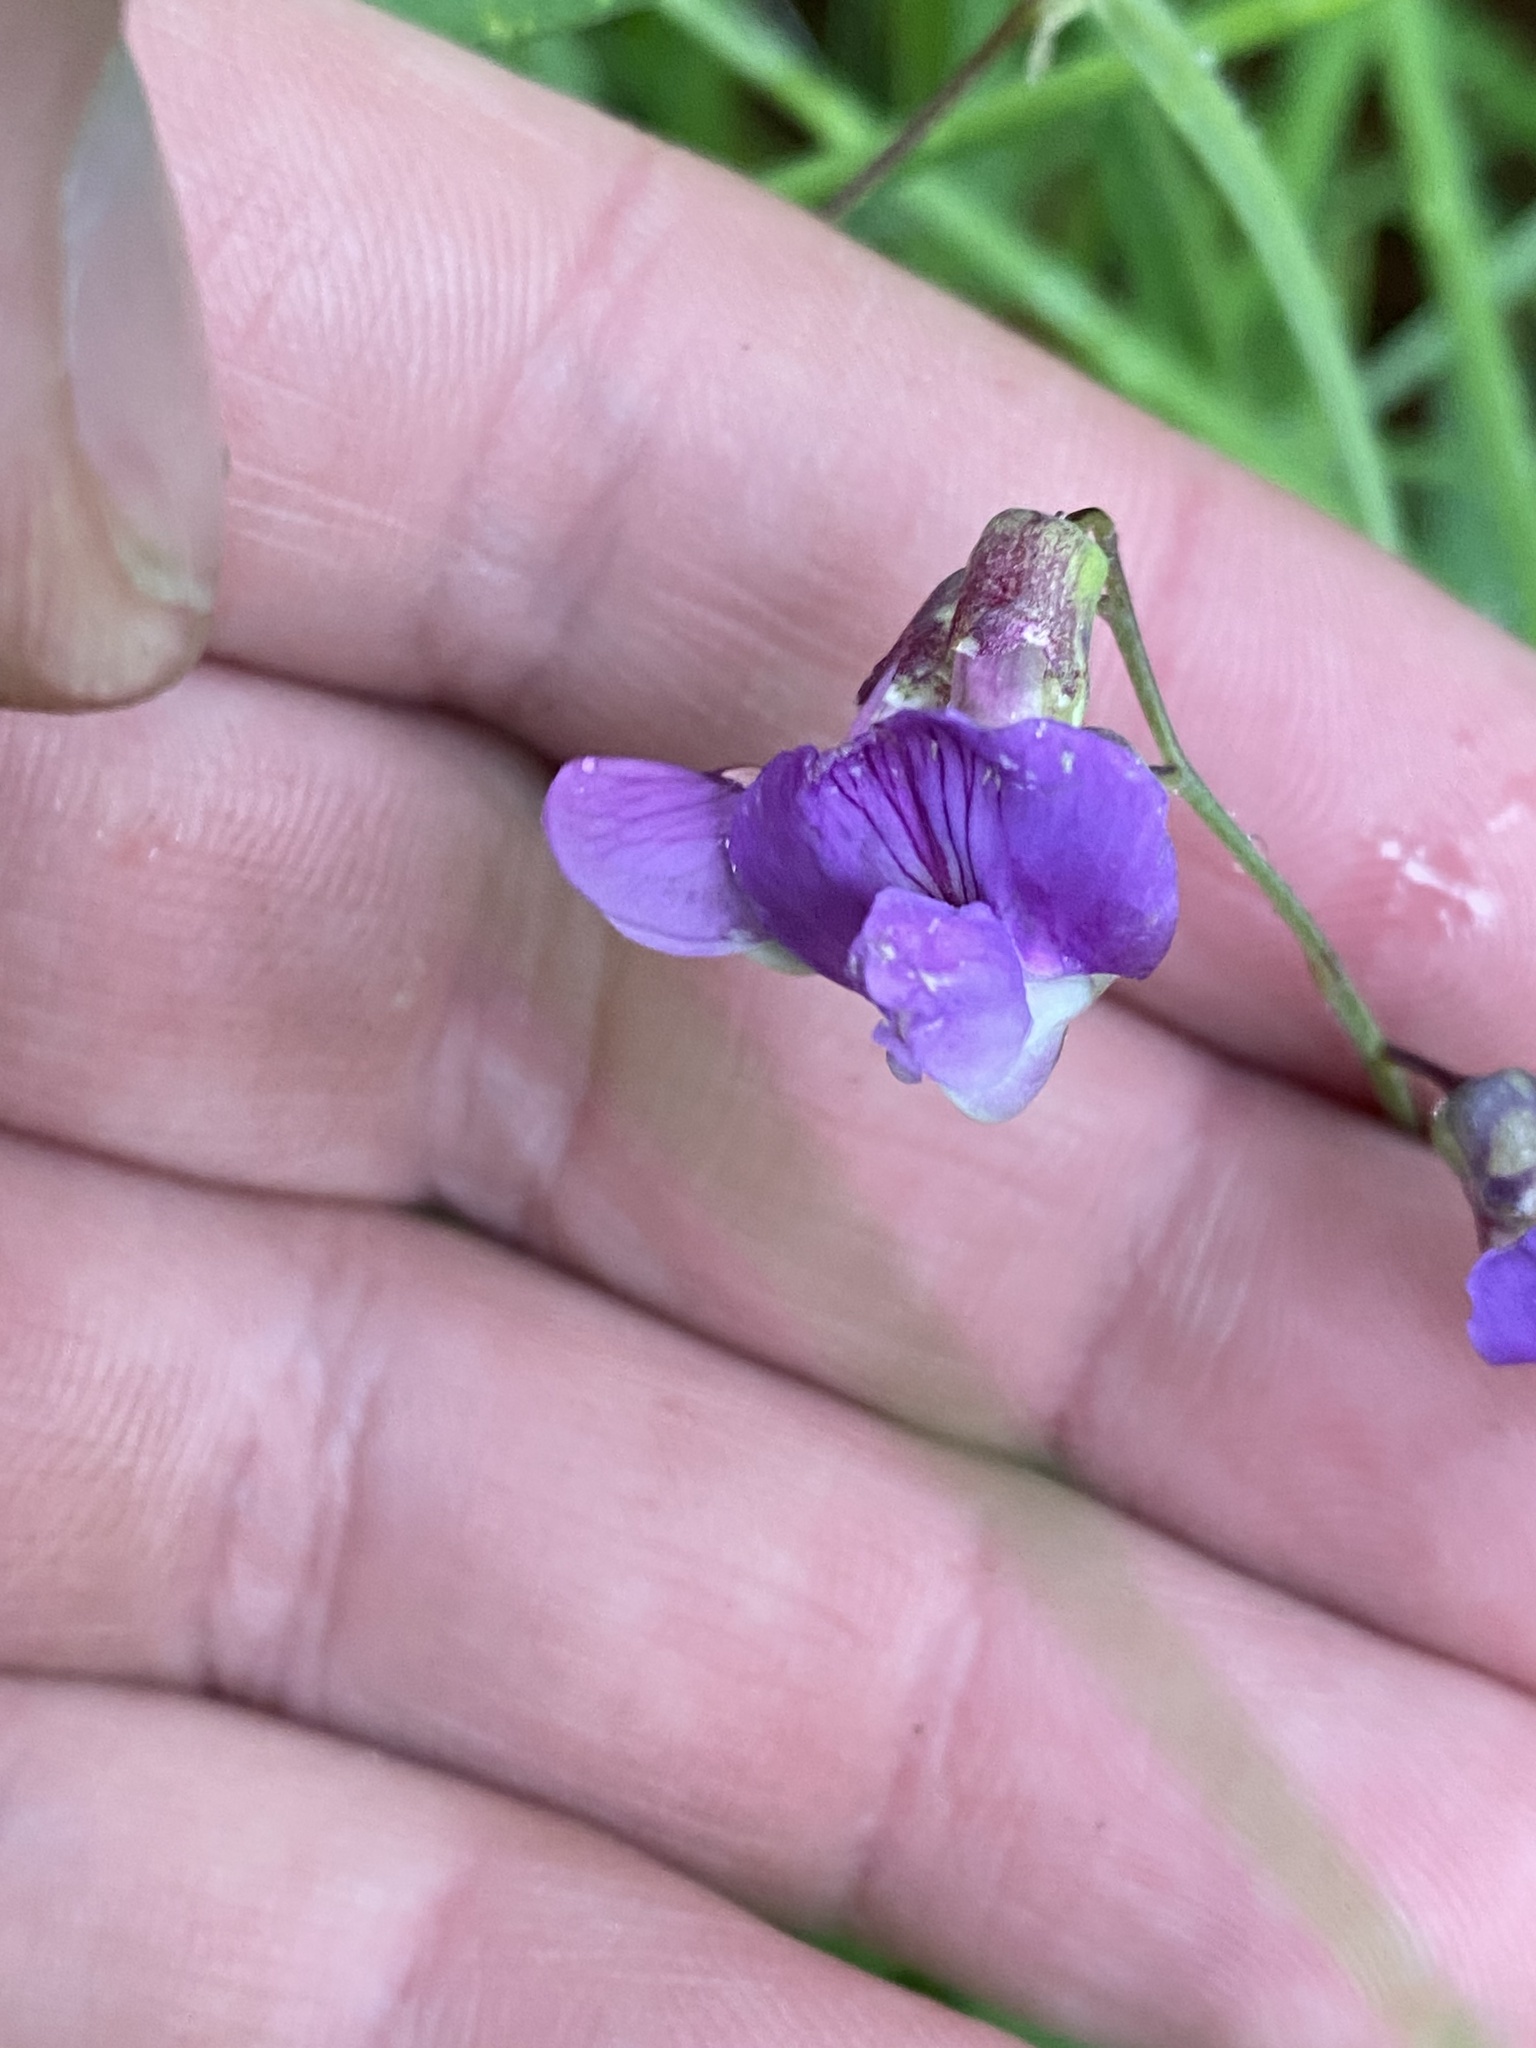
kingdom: Plantae
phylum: Tracheophyta
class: Magnoliopsida
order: Fabales
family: Fabaceae
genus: Lathyrus
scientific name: Lathyrus palustris
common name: Marsh pea
